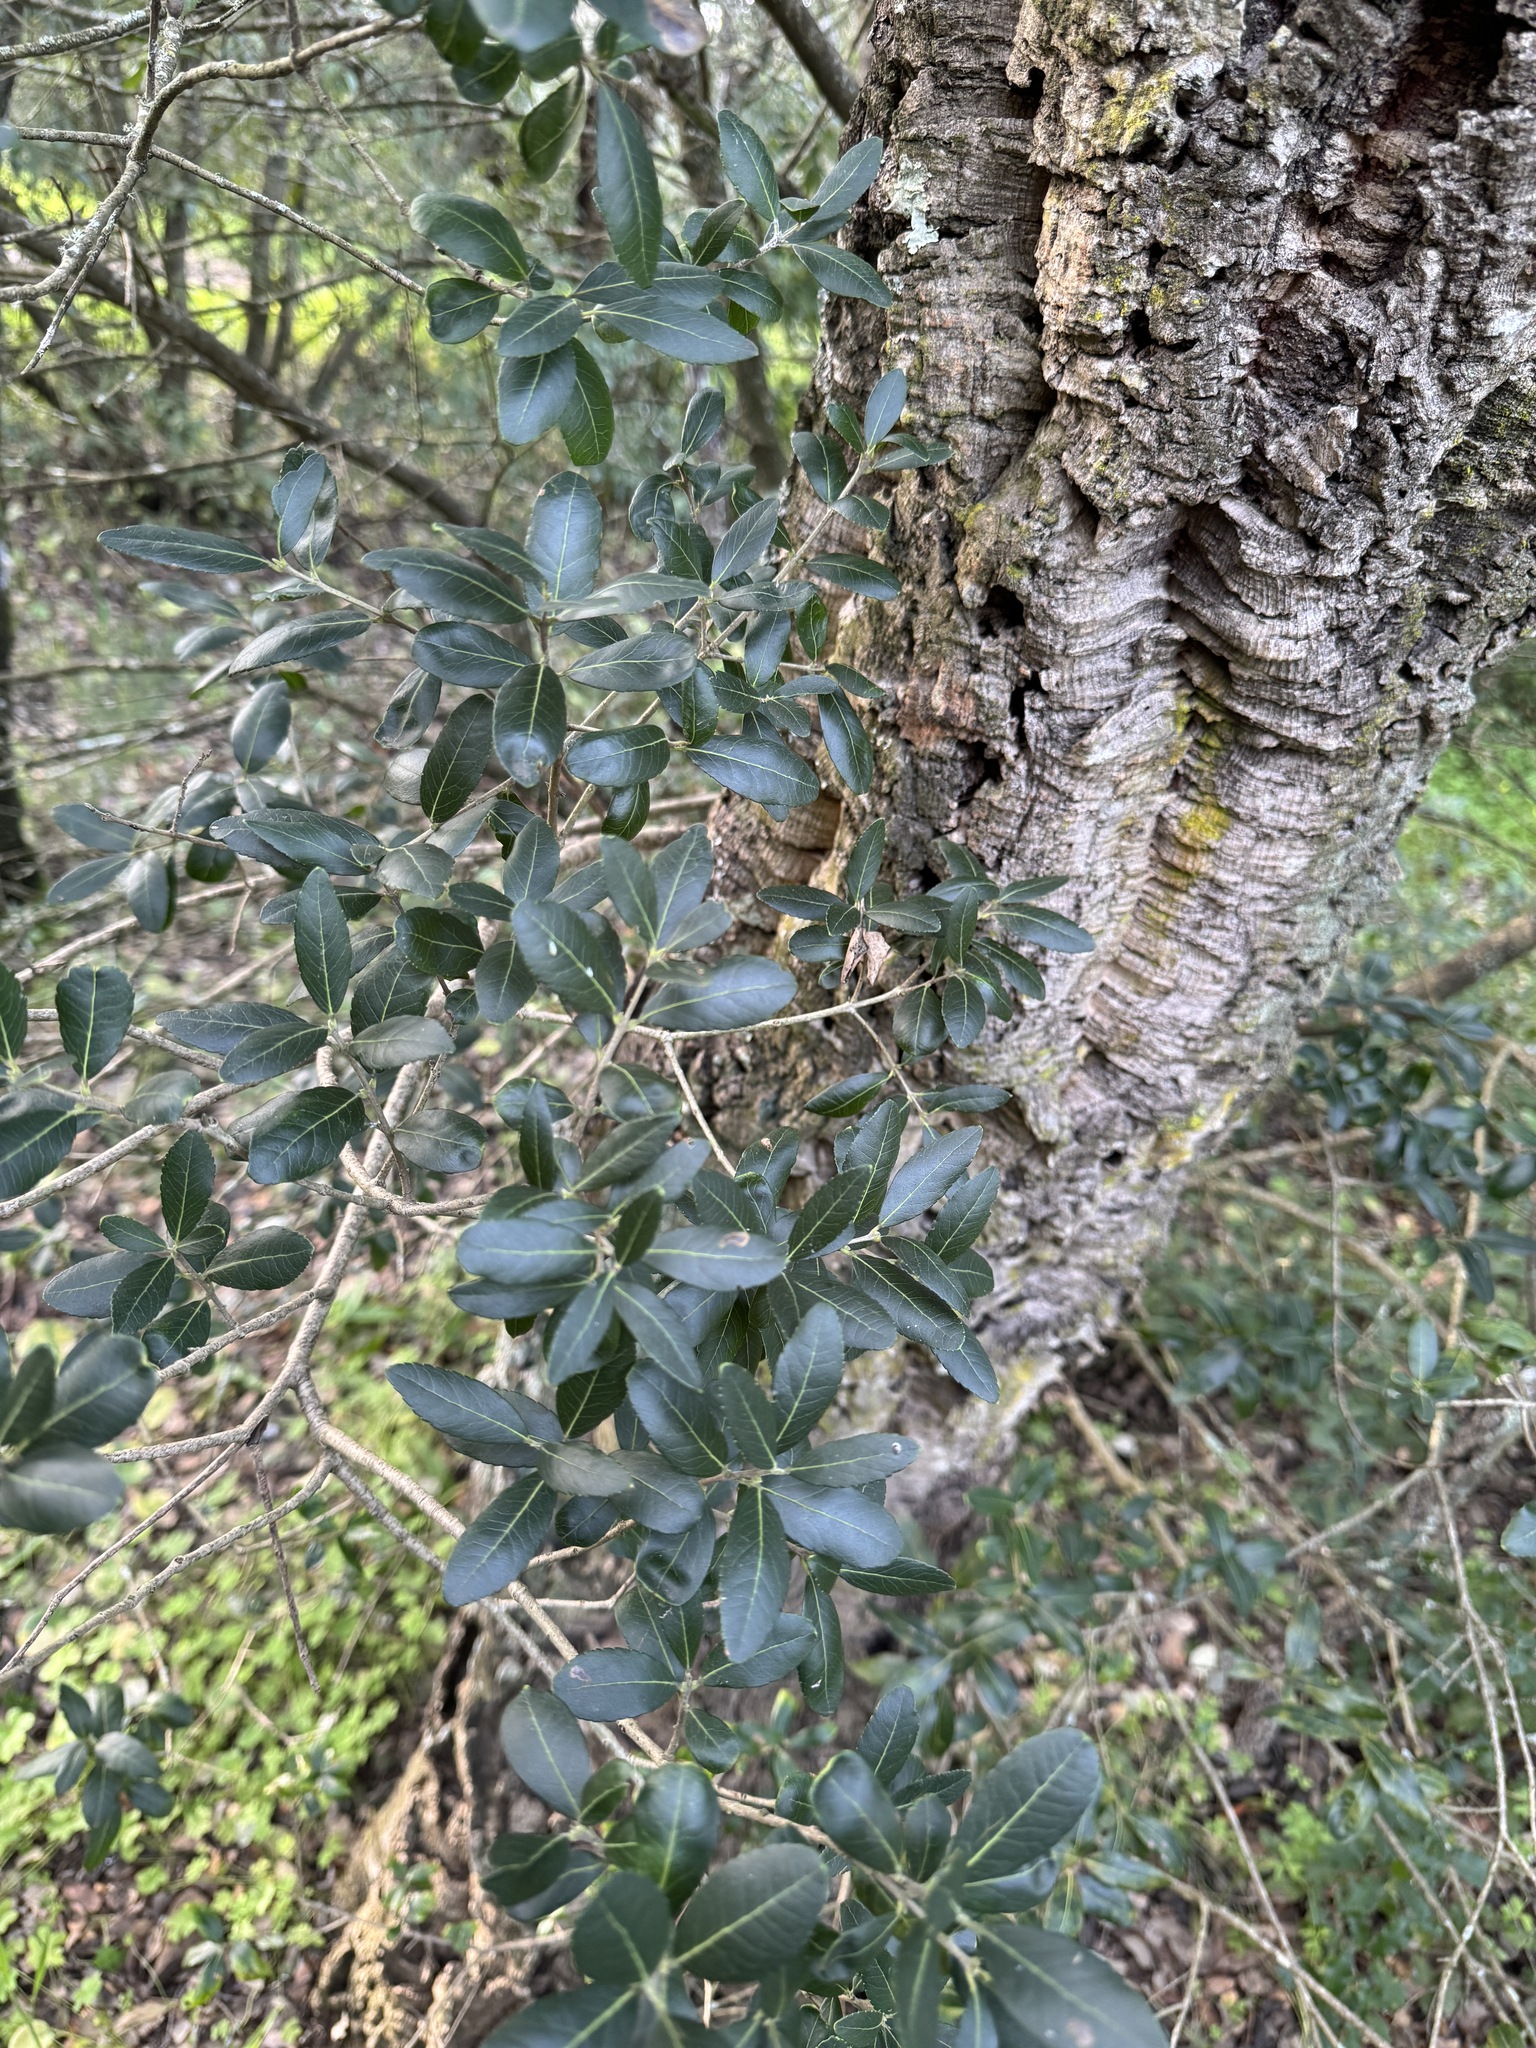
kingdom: Plantae
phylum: Tracheophyta
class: Magnoliopsida
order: Lamiales
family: Oleaceae
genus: Phillyrea
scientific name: Phillyrea latifolia
